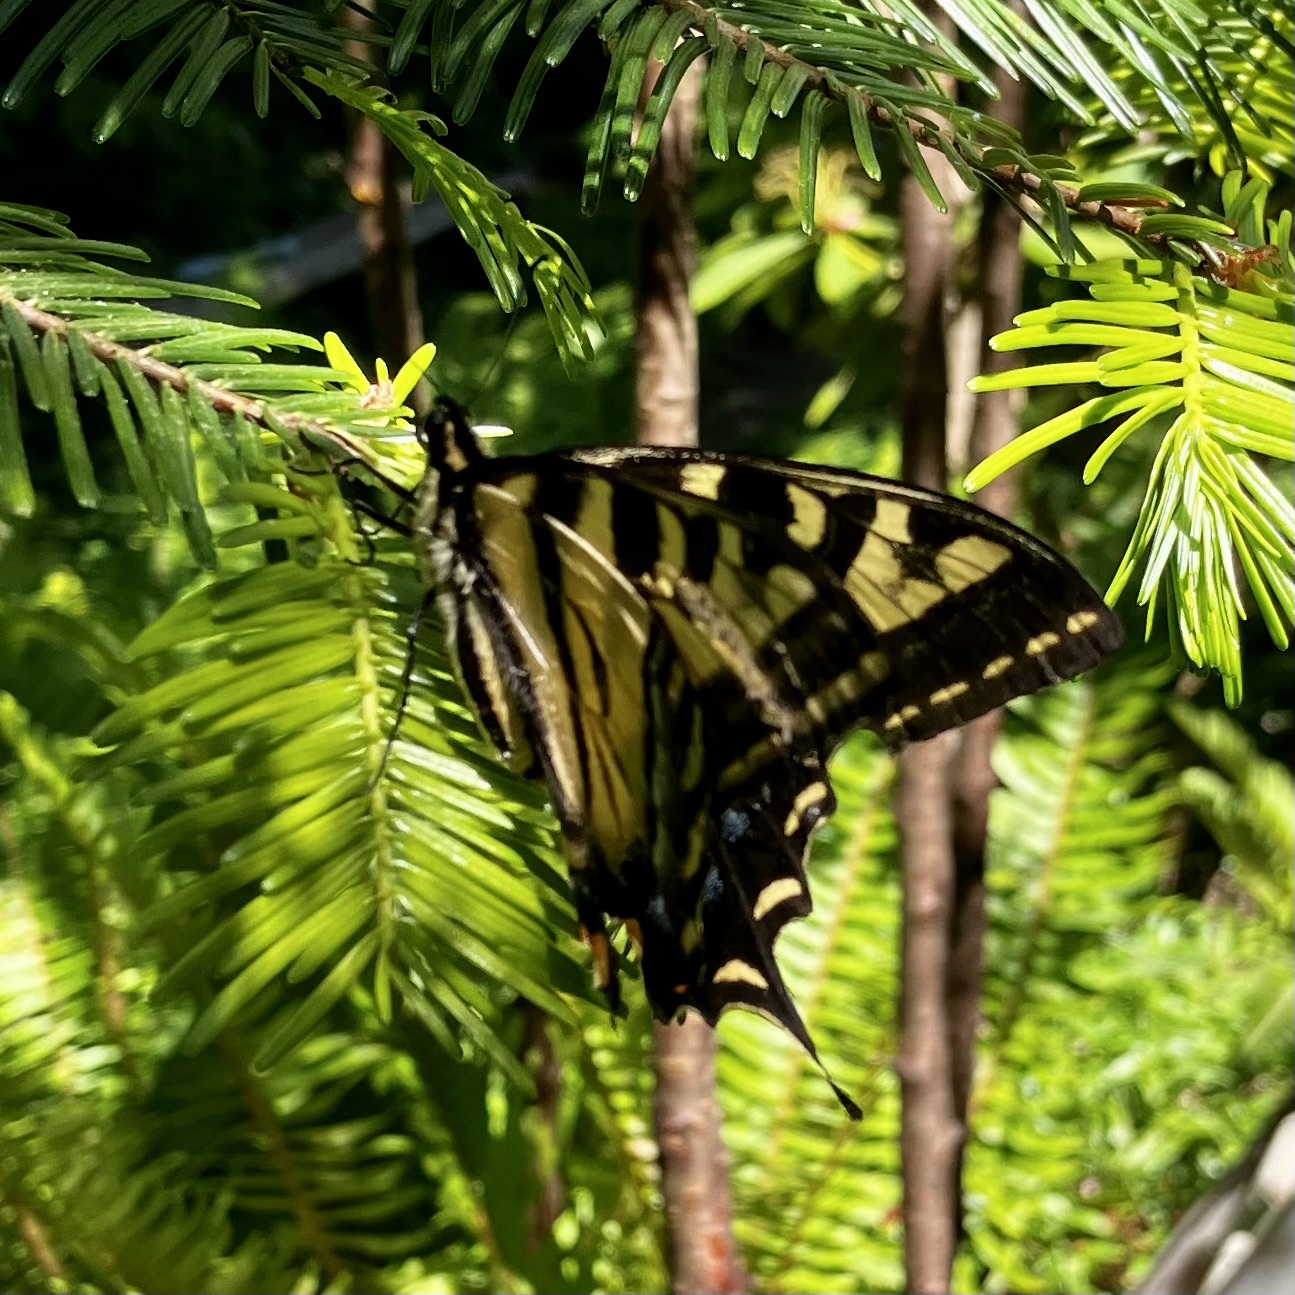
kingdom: Animalia
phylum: Arthropoda
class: Insecta
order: Lepidoptera
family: Papilionidae
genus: Papilio
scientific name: Papilio rutulus
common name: Western tiger swallowtail
